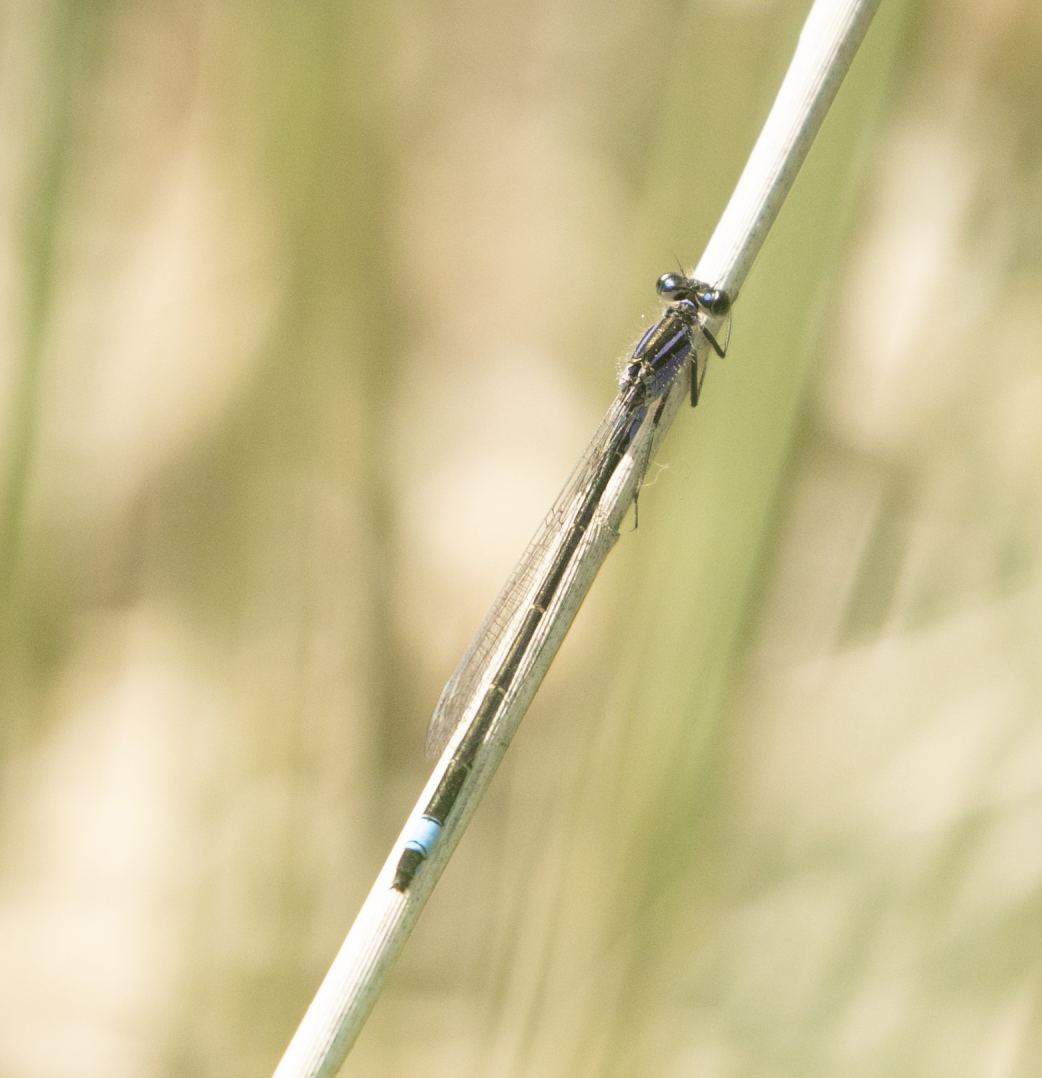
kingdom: Animalia
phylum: Arthropoda
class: Insecta
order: Odonata
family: Coenagrionidae
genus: Ischnura
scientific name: Ischnura elegans
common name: Blue-tailed damselfly
